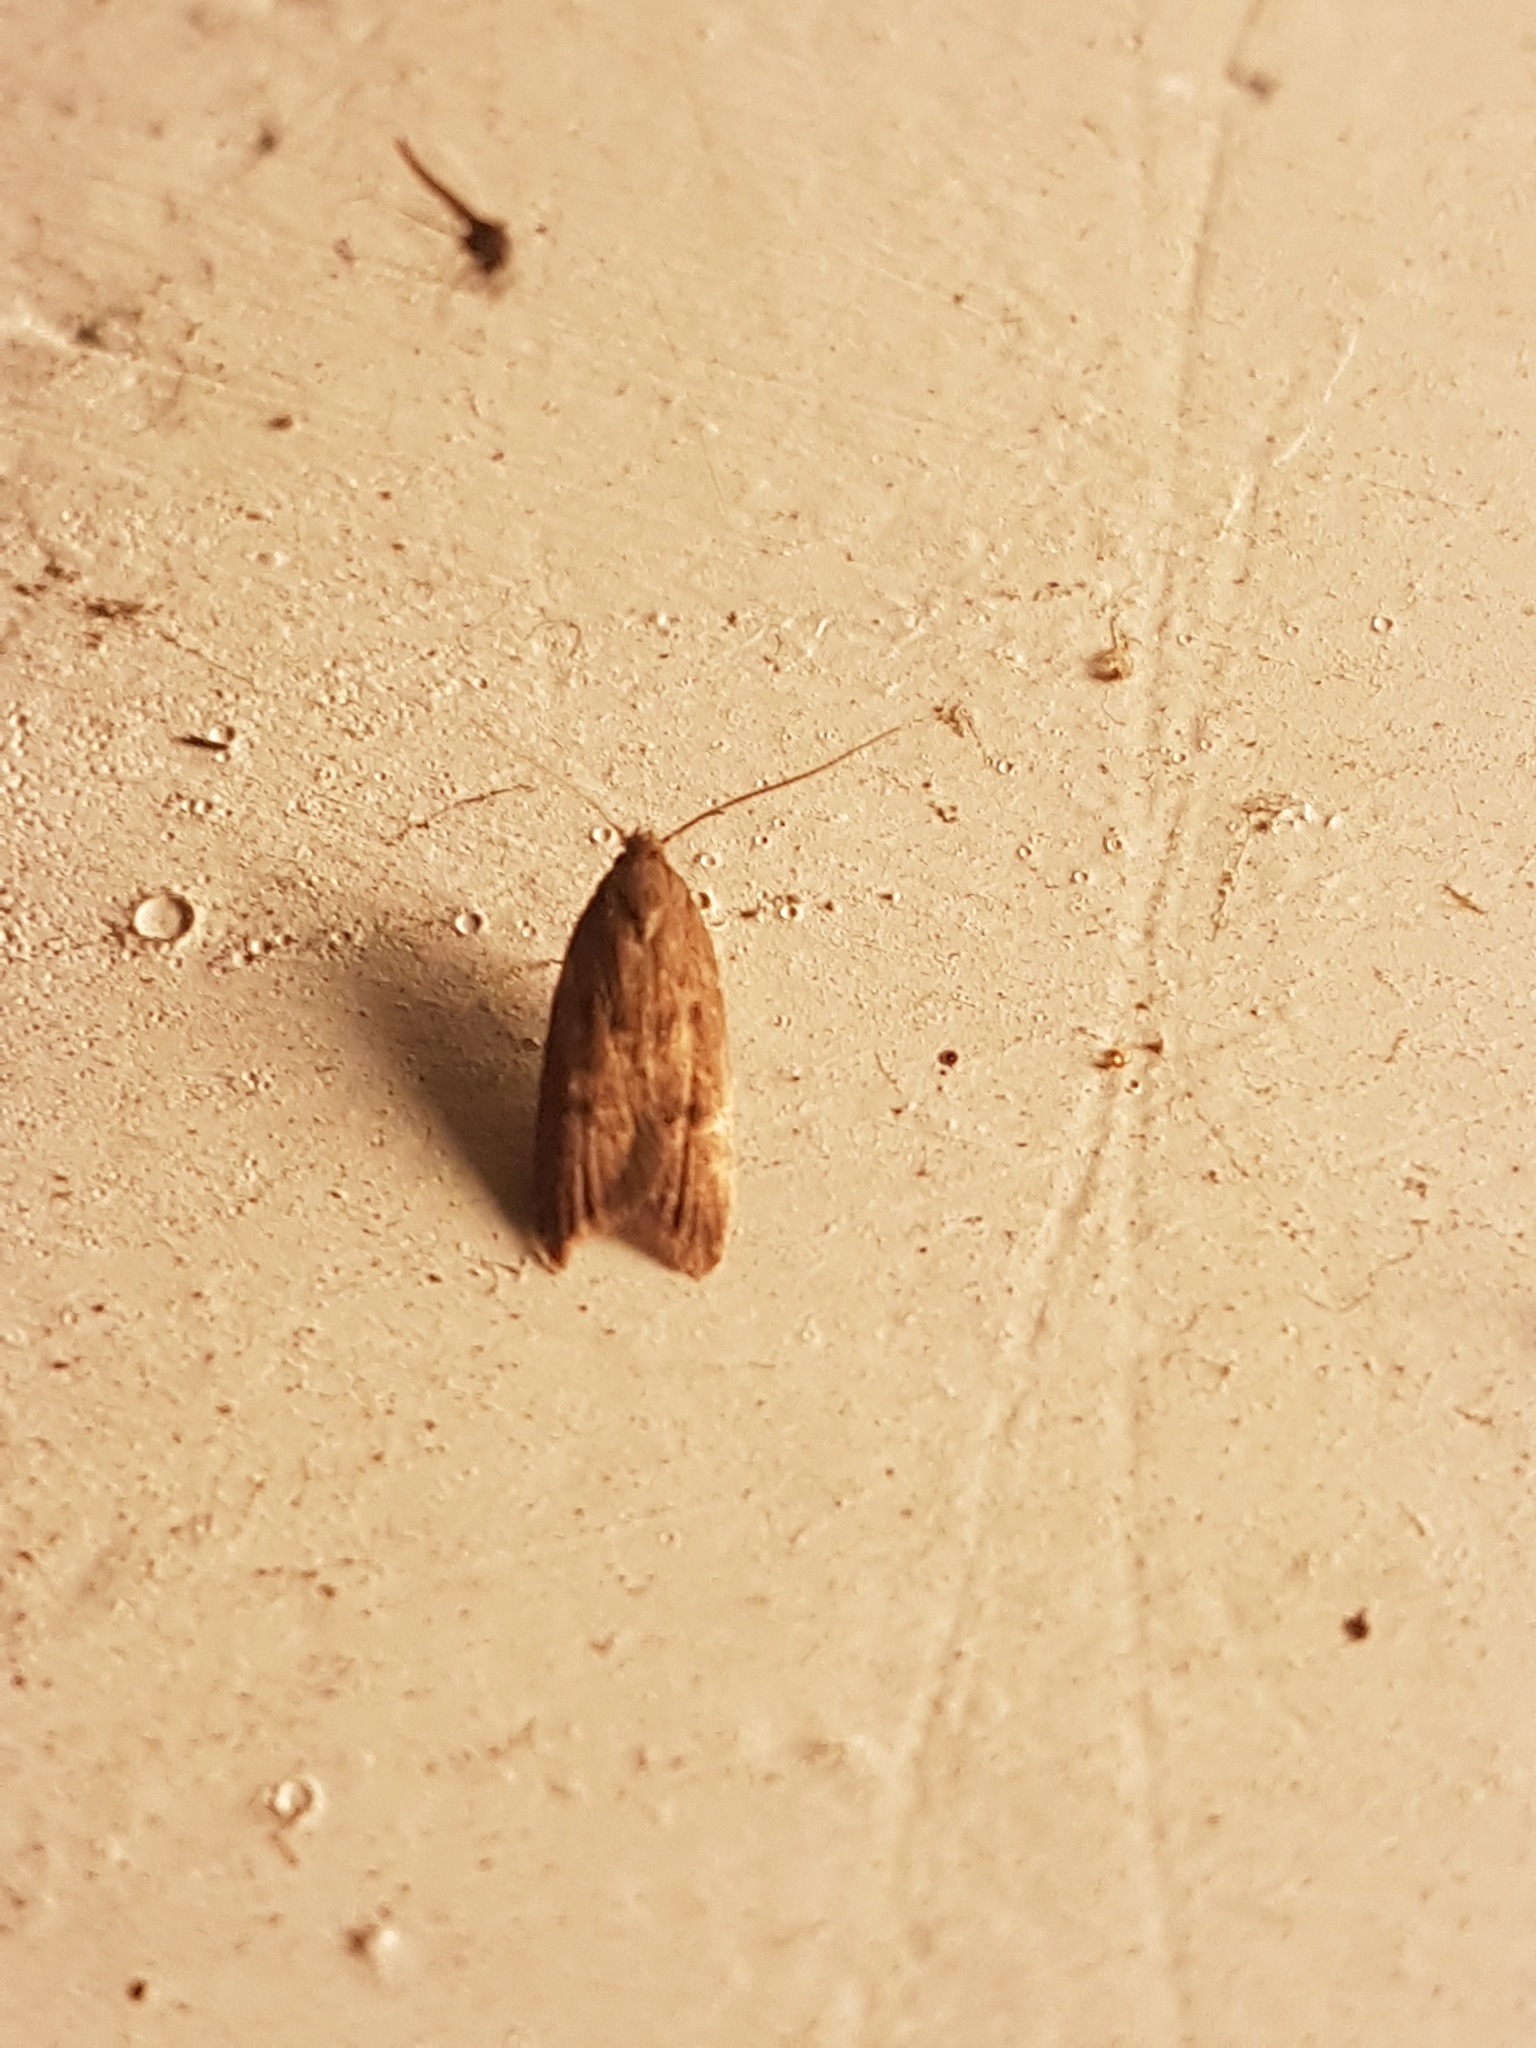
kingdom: Animalia
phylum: Arthropoda
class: Insecta
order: Lepidoptera
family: Oecophoridae
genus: Tachystola
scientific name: Tachystola acroxantha
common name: Ruddy streak
